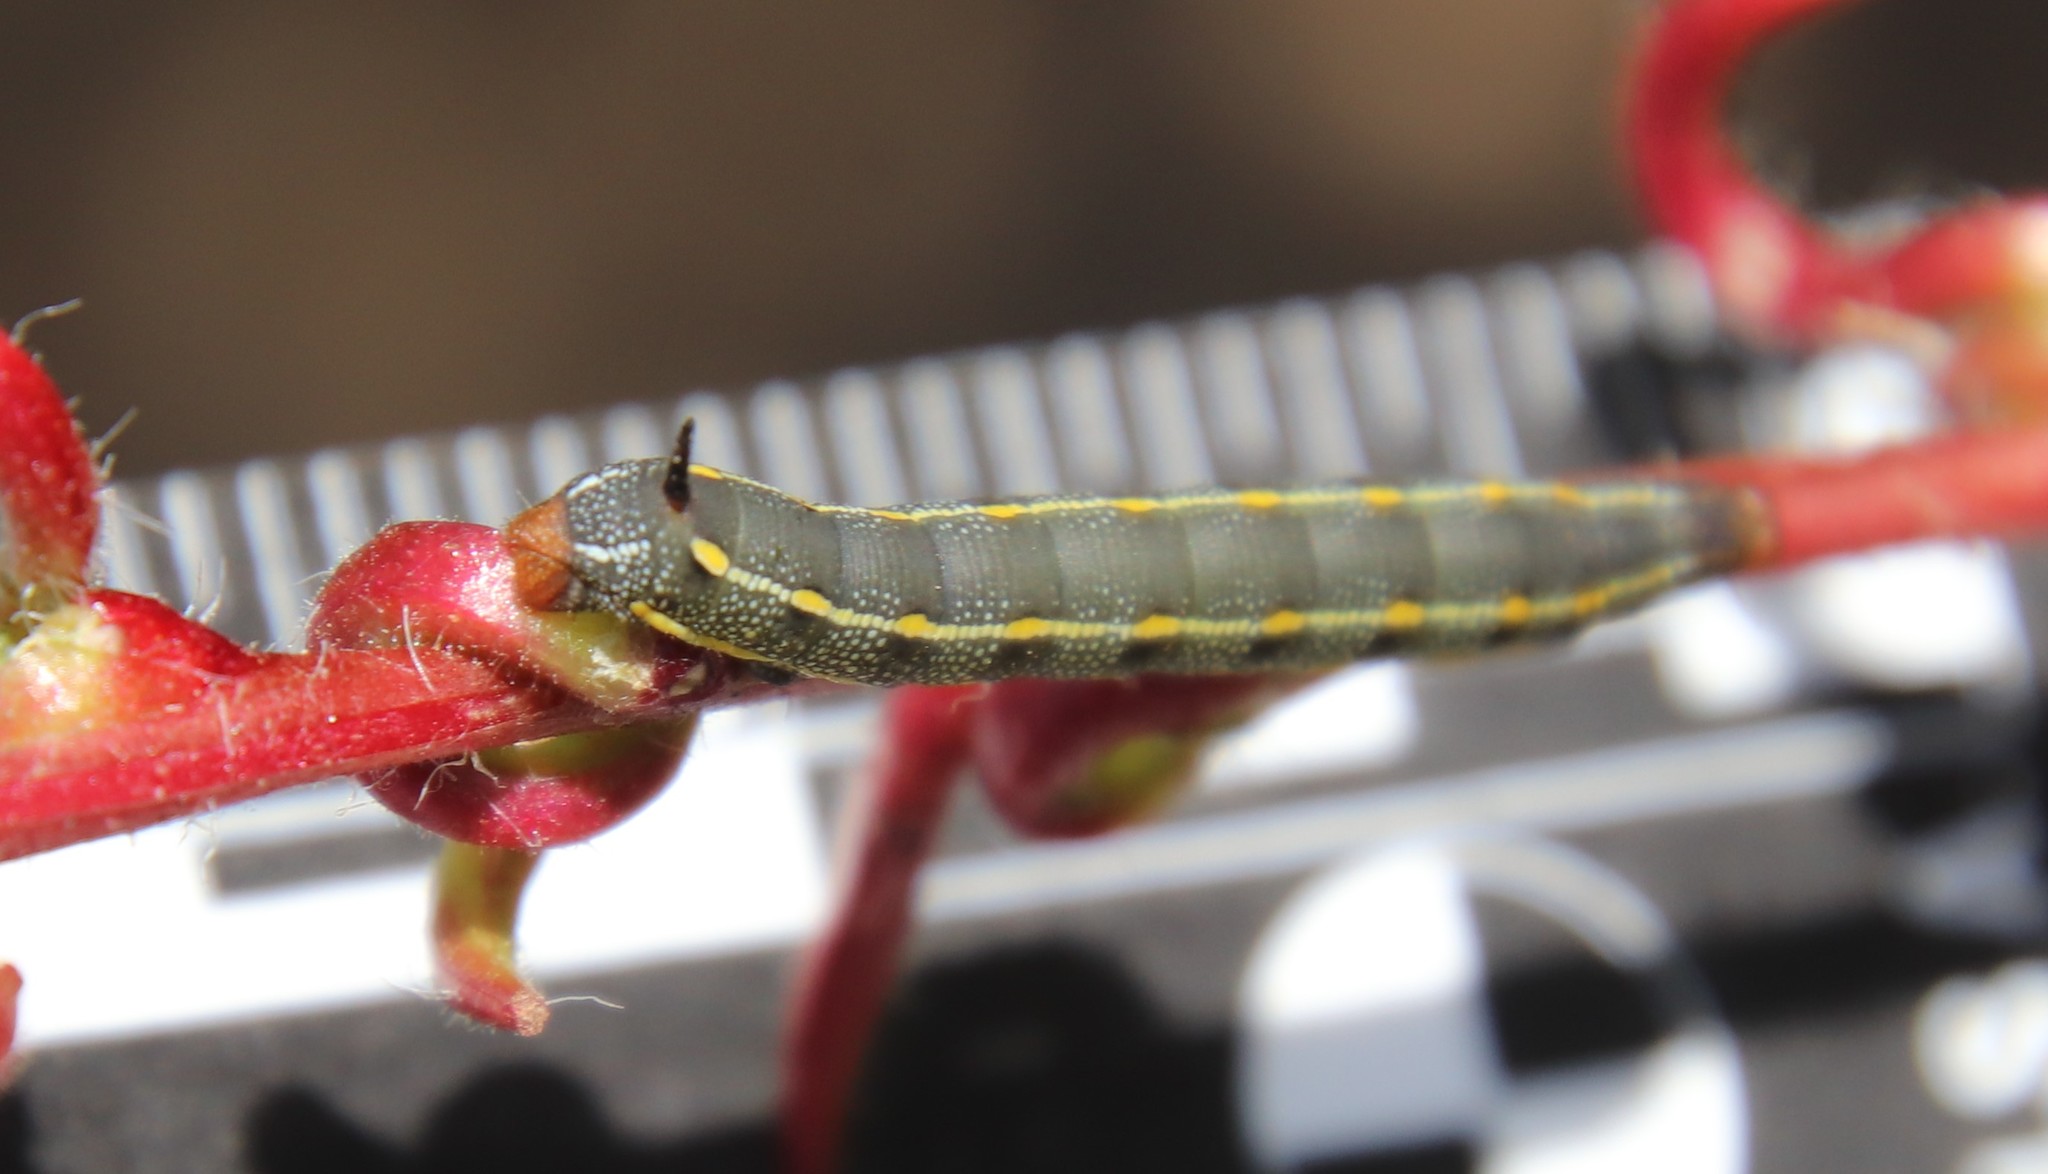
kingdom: Animalia
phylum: Arthropoda
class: Insecta
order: Lepidoptera
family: Sphingidae
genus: Hyles
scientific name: Hyles lineata
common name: White-lined sphinx
